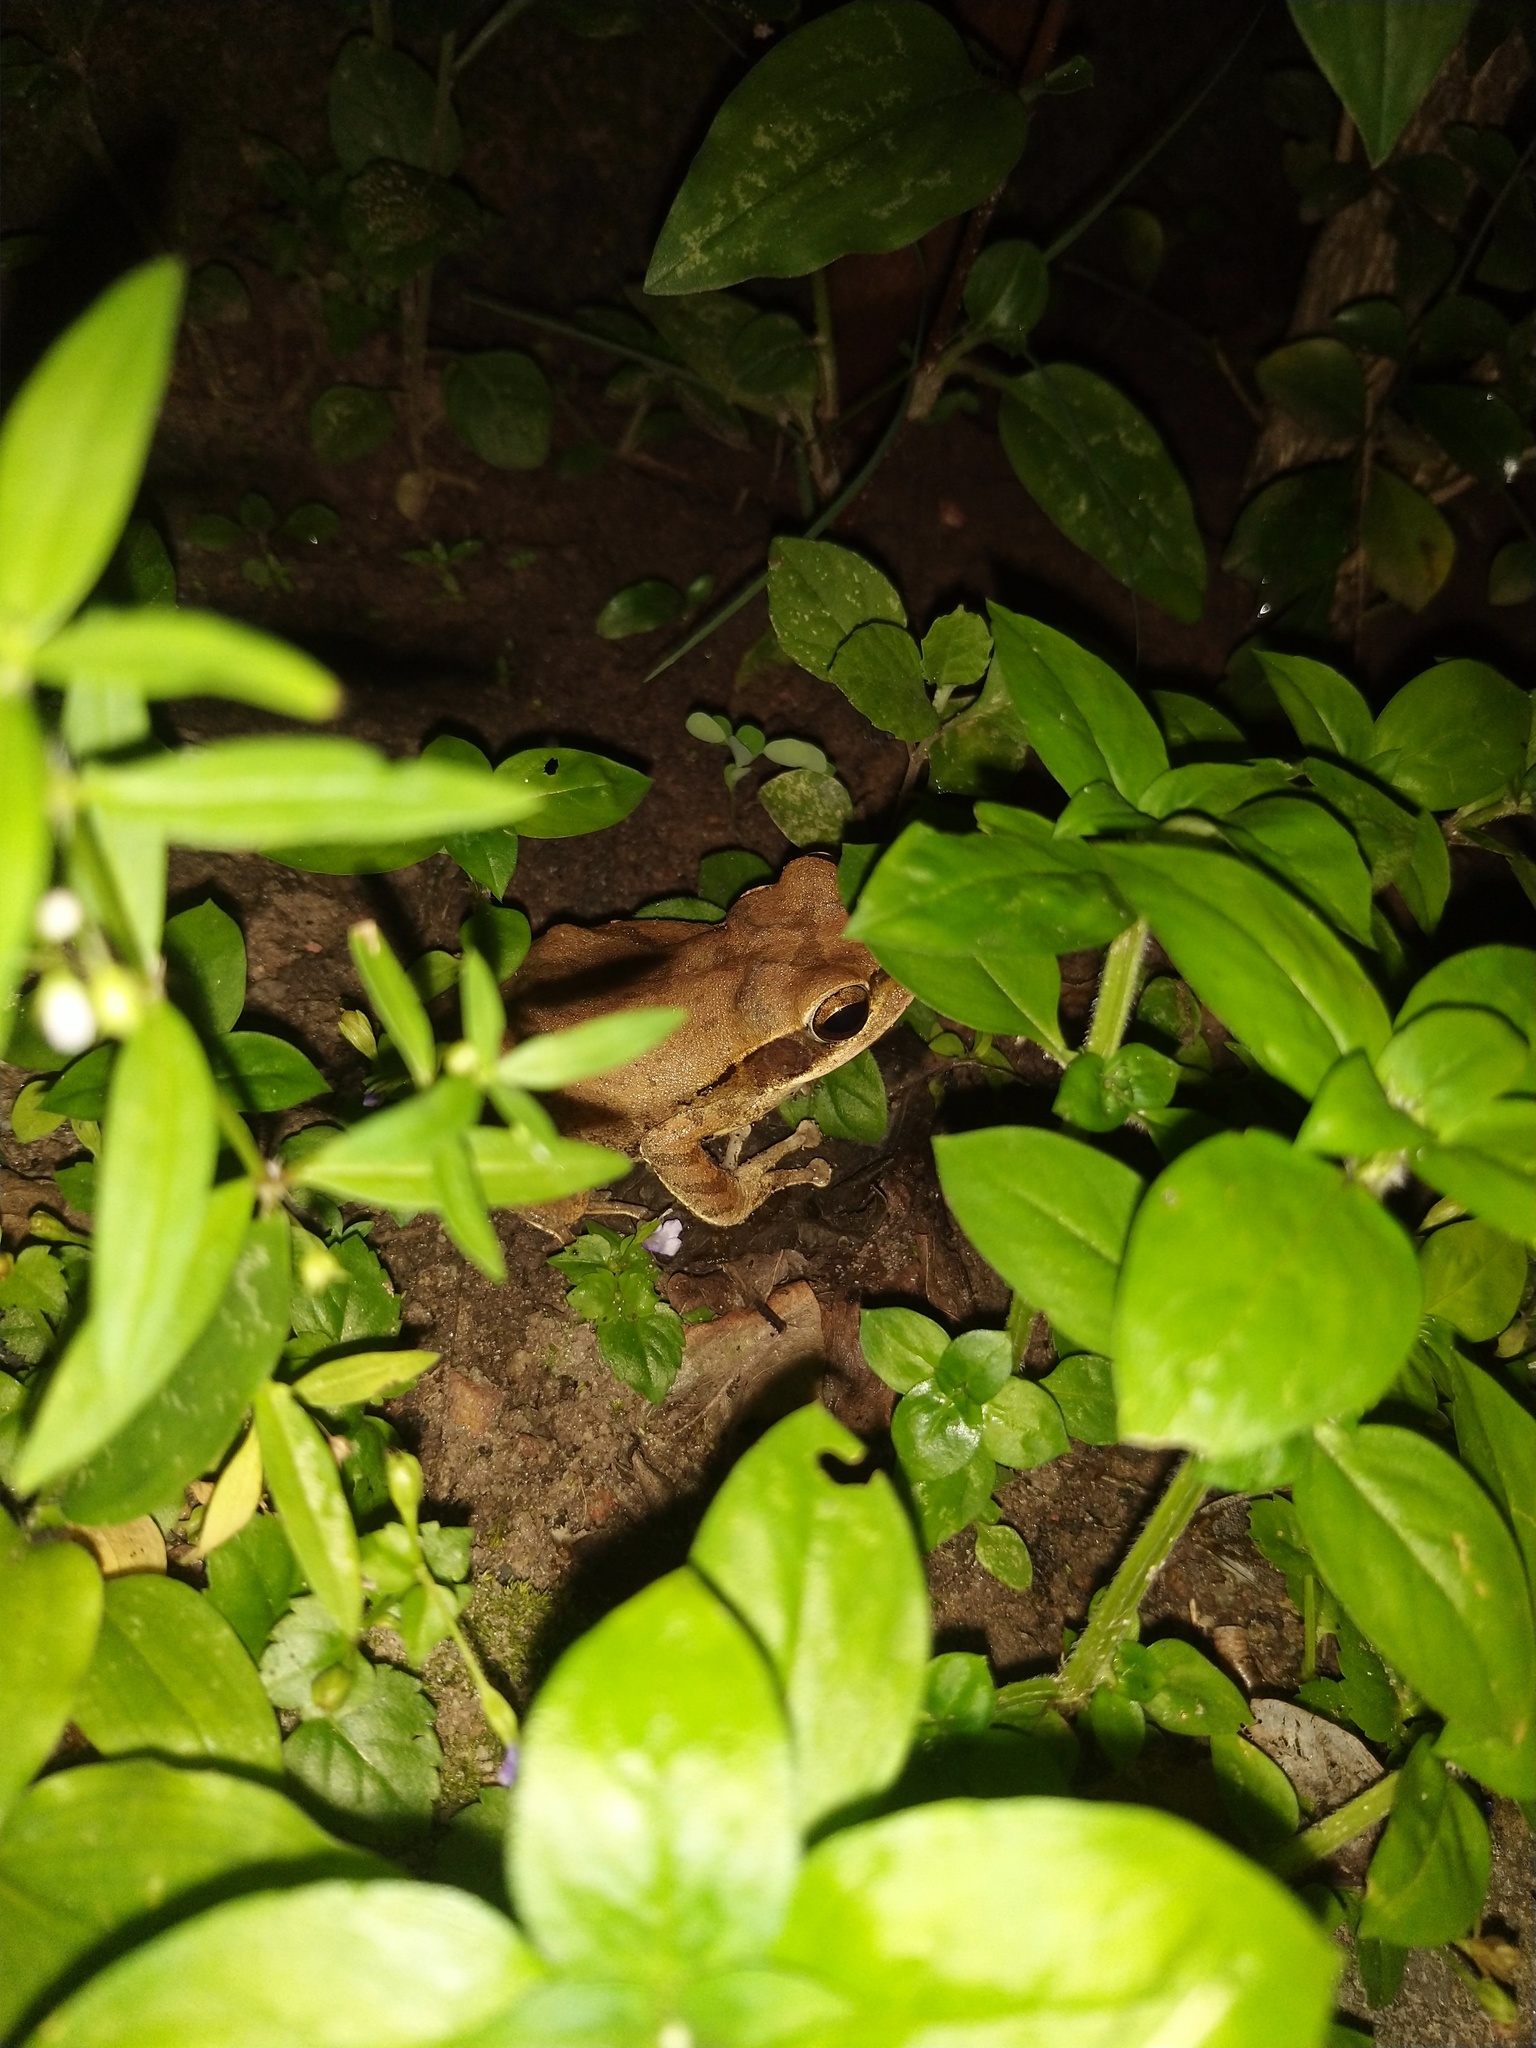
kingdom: Animalia
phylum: Chordata
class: Amphibia
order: Anura
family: Rhacophoridae
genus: Polypedates
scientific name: Polypedates maculatus
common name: Himalayan tree frog
